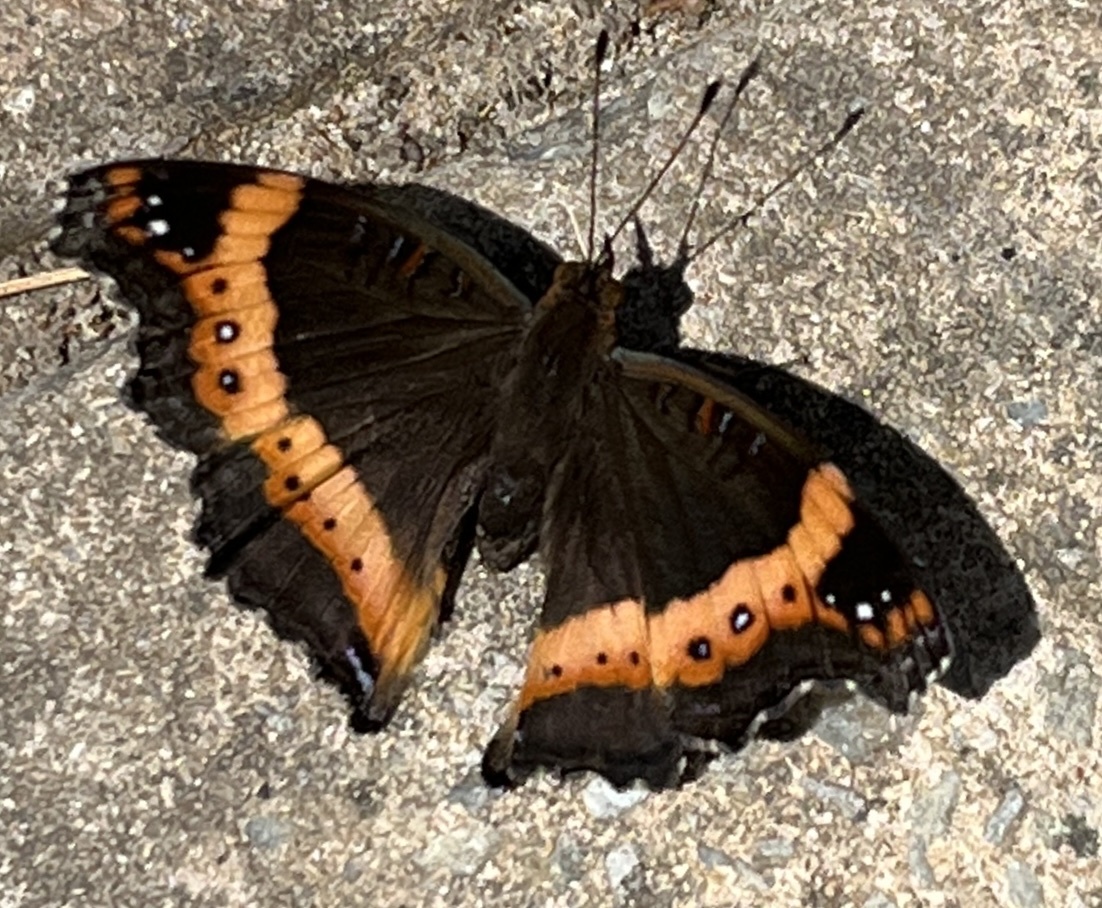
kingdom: Animalia
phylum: Arthropoda
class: Insecta
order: Lepidoptera
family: Nymphalidae
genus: Junonia
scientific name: Junonia archesia
